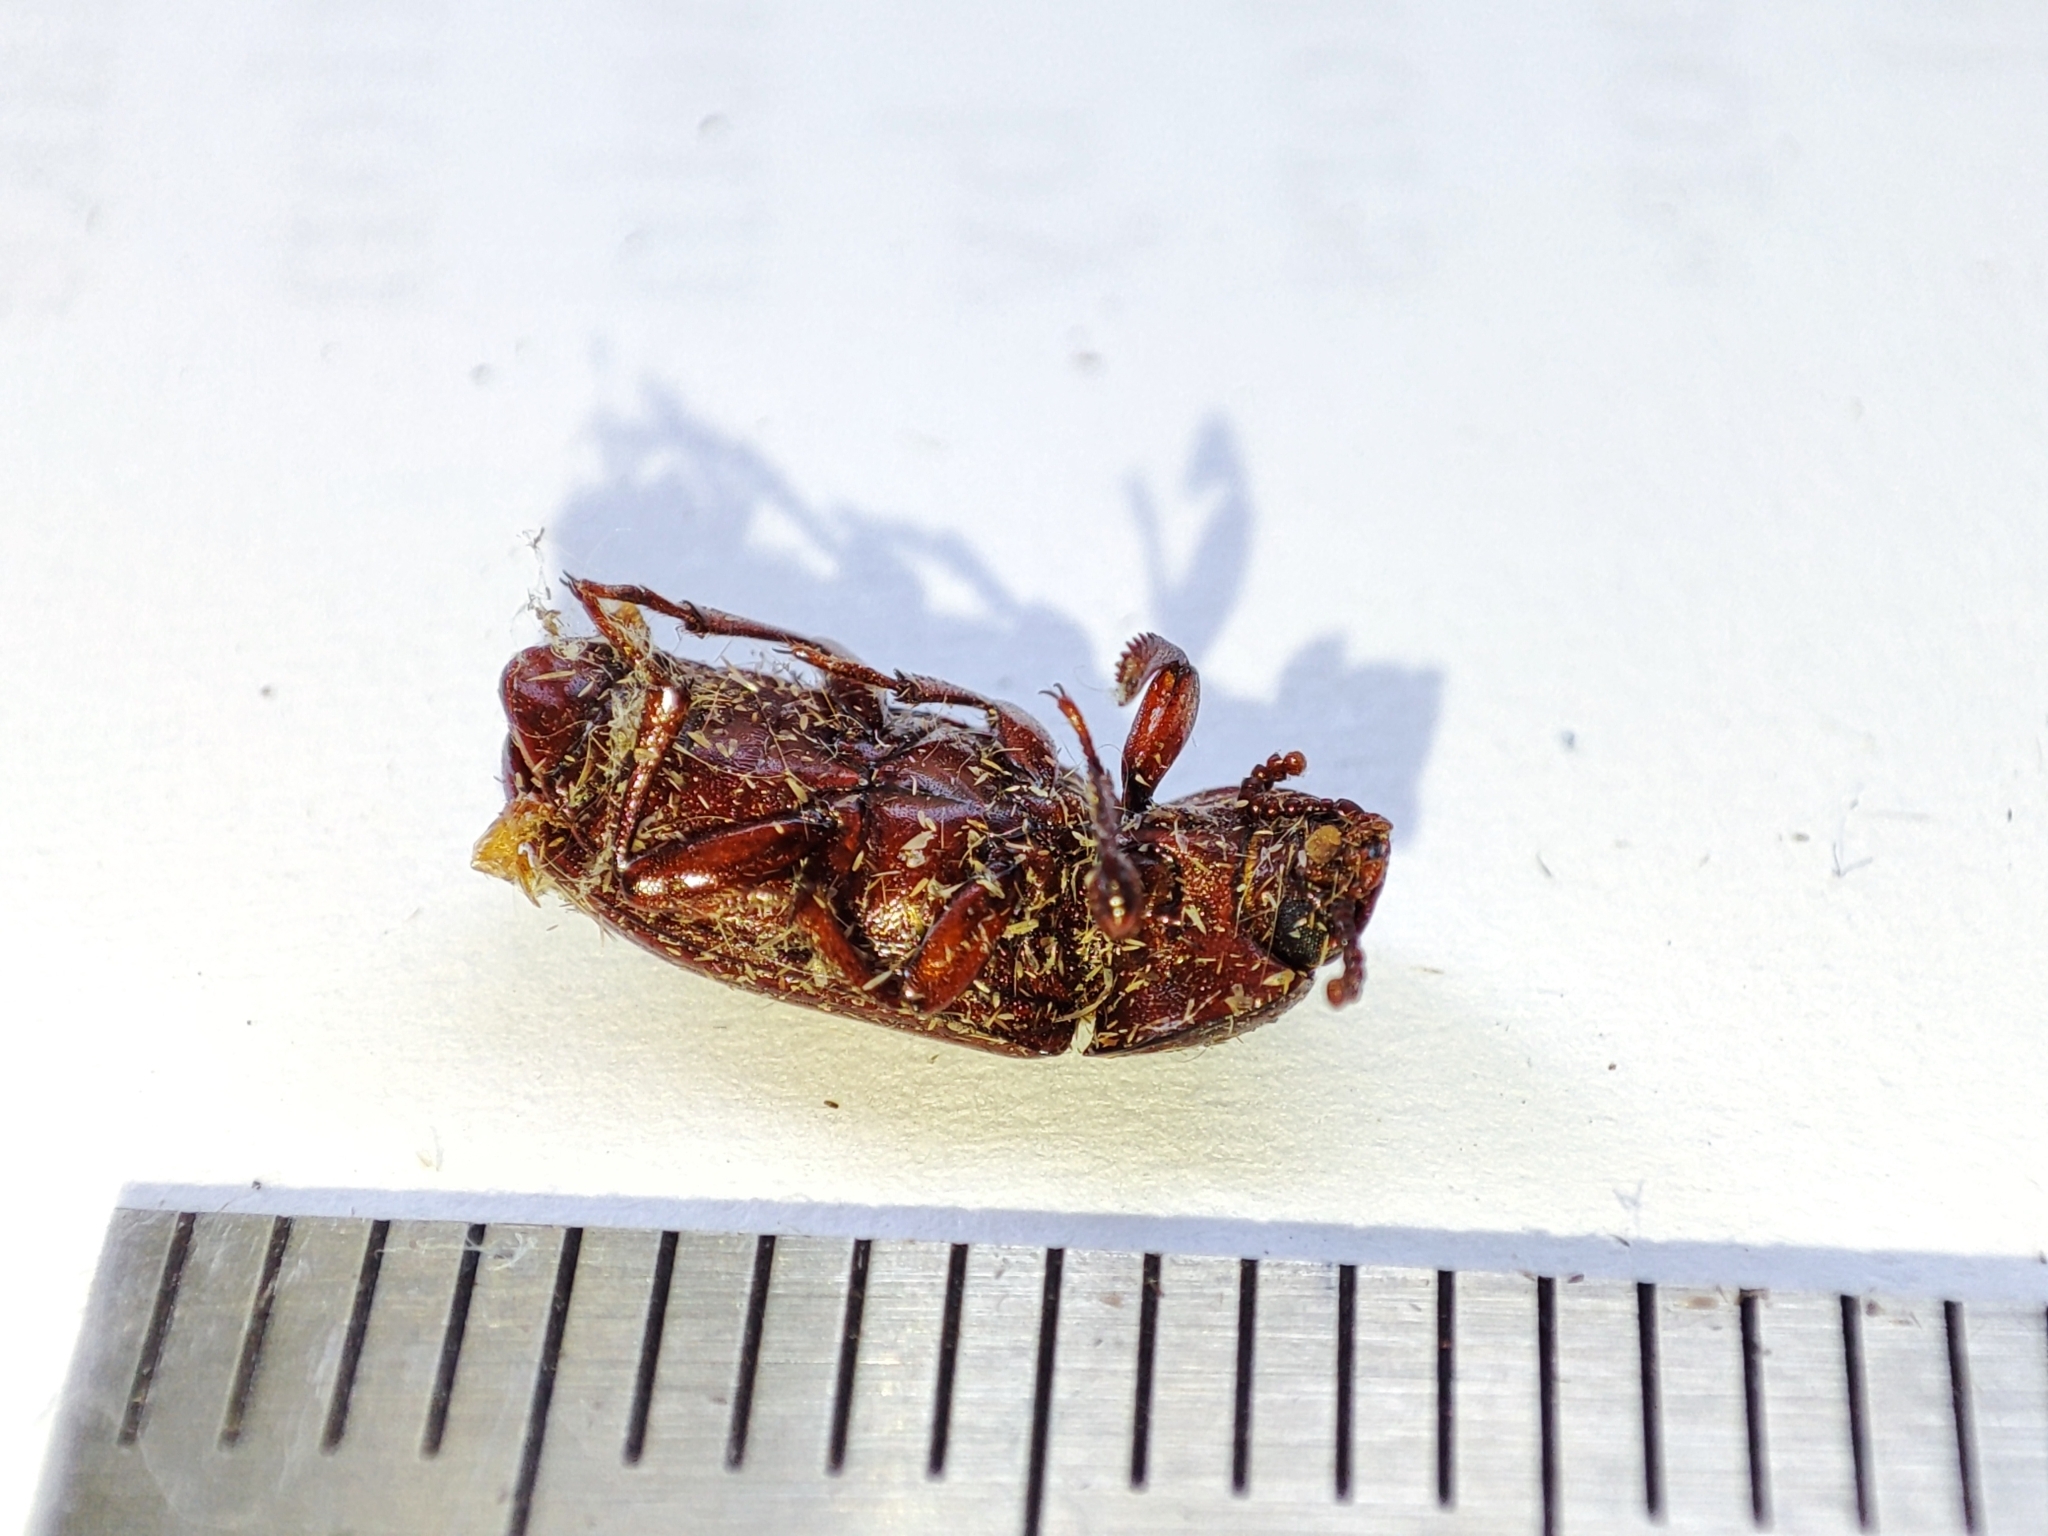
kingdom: Animalia
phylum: Arthropoda
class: Insecta
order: Coleoptera
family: Tenebrionidae
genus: Uloma
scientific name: Uloma culinaris
